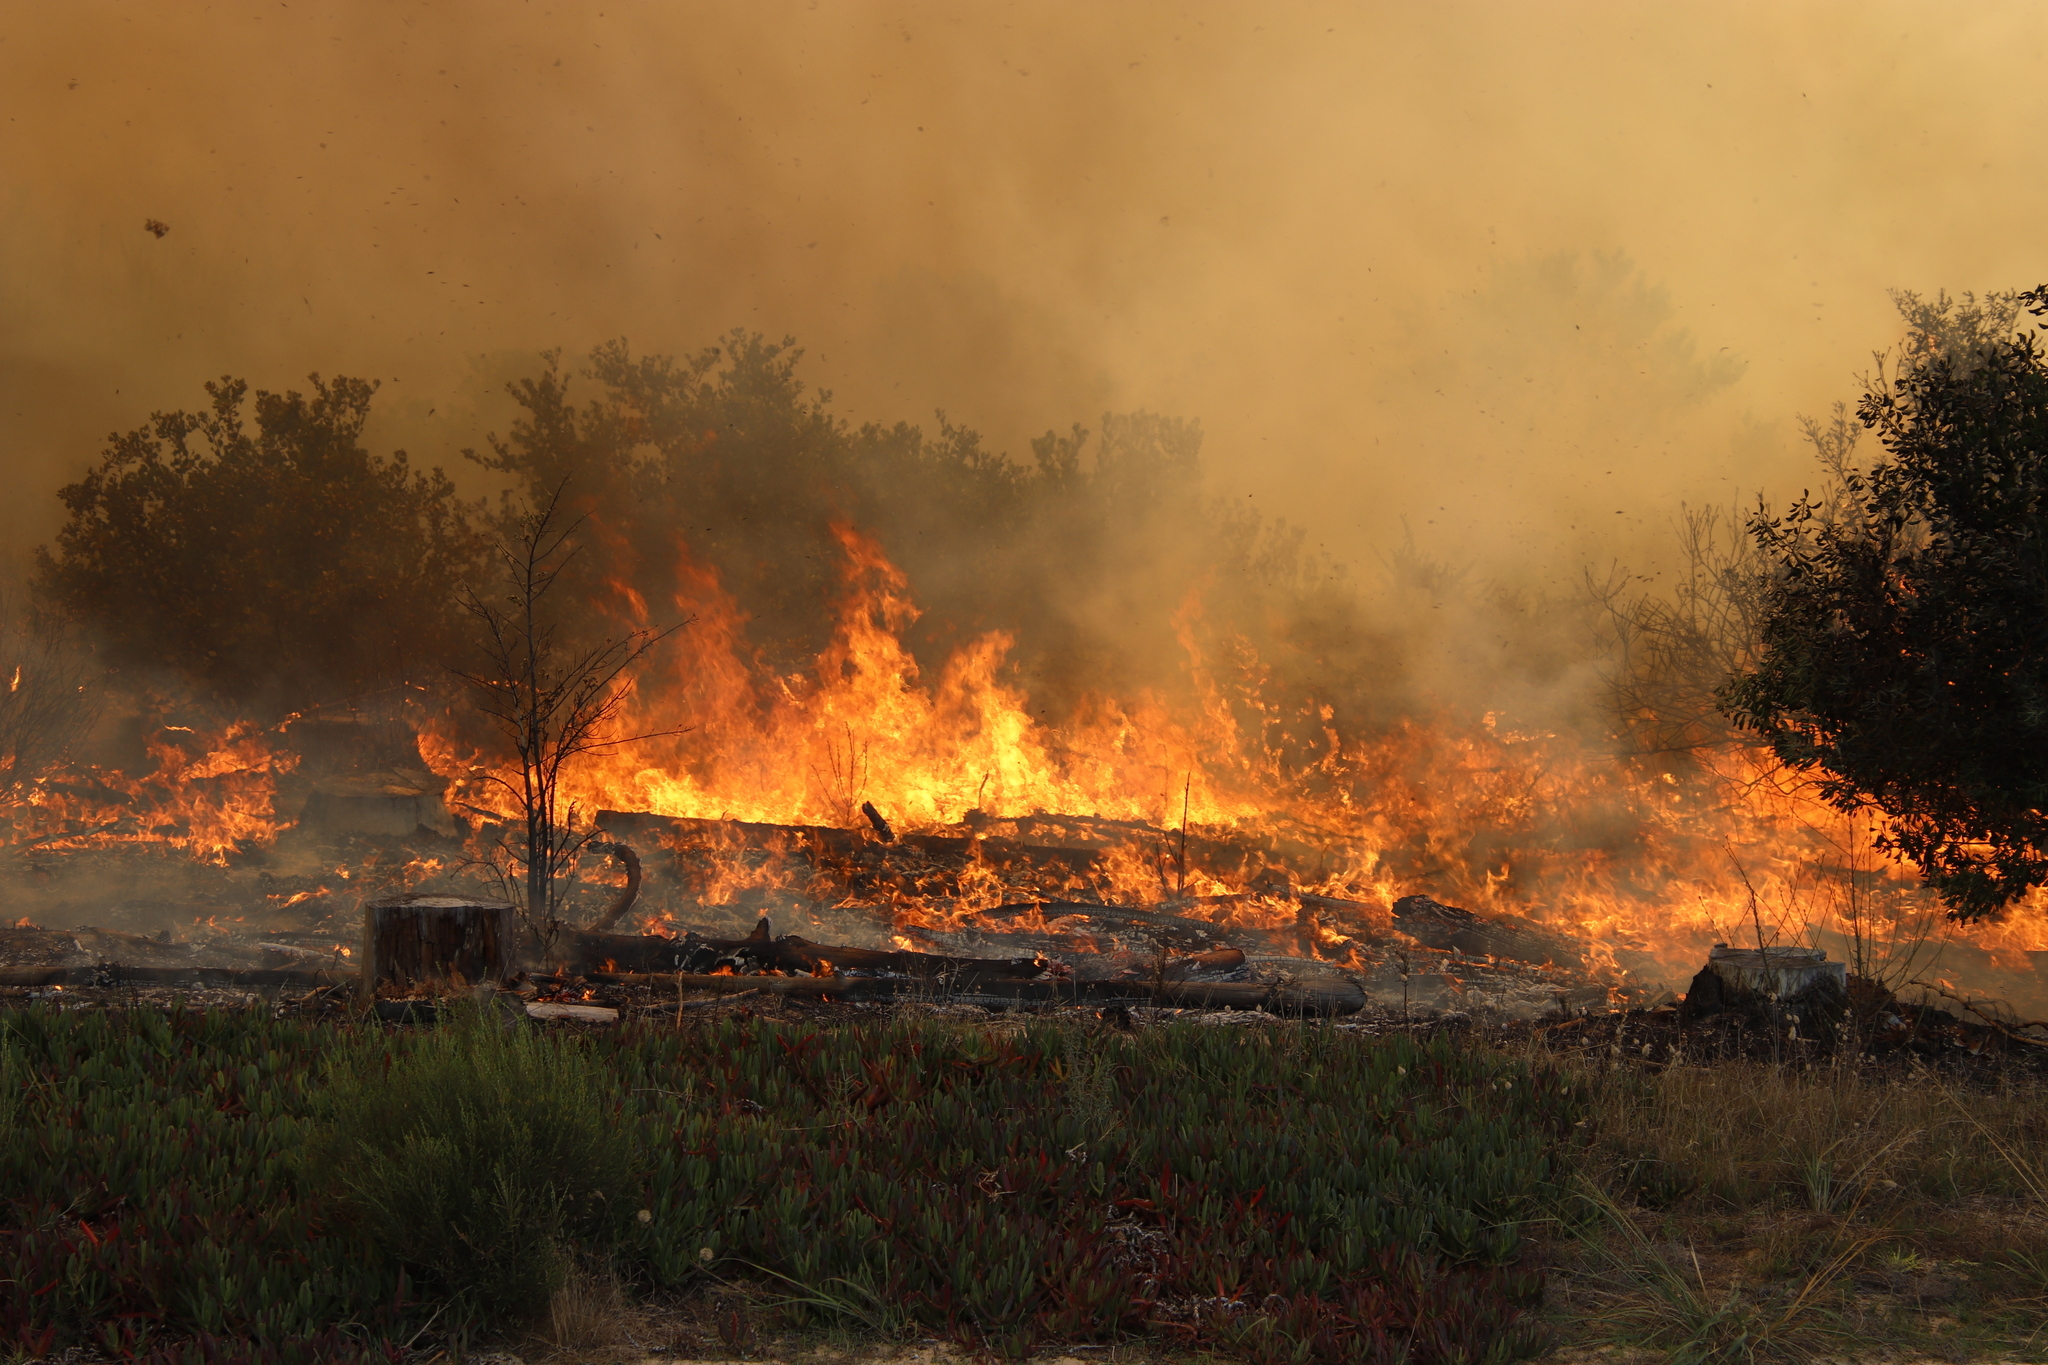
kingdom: Plantae
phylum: Tracheophyta
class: Magnoliopsida
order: Asterales
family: Asteraceae
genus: Osteospermum
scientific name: Osteospermum moniliferum
